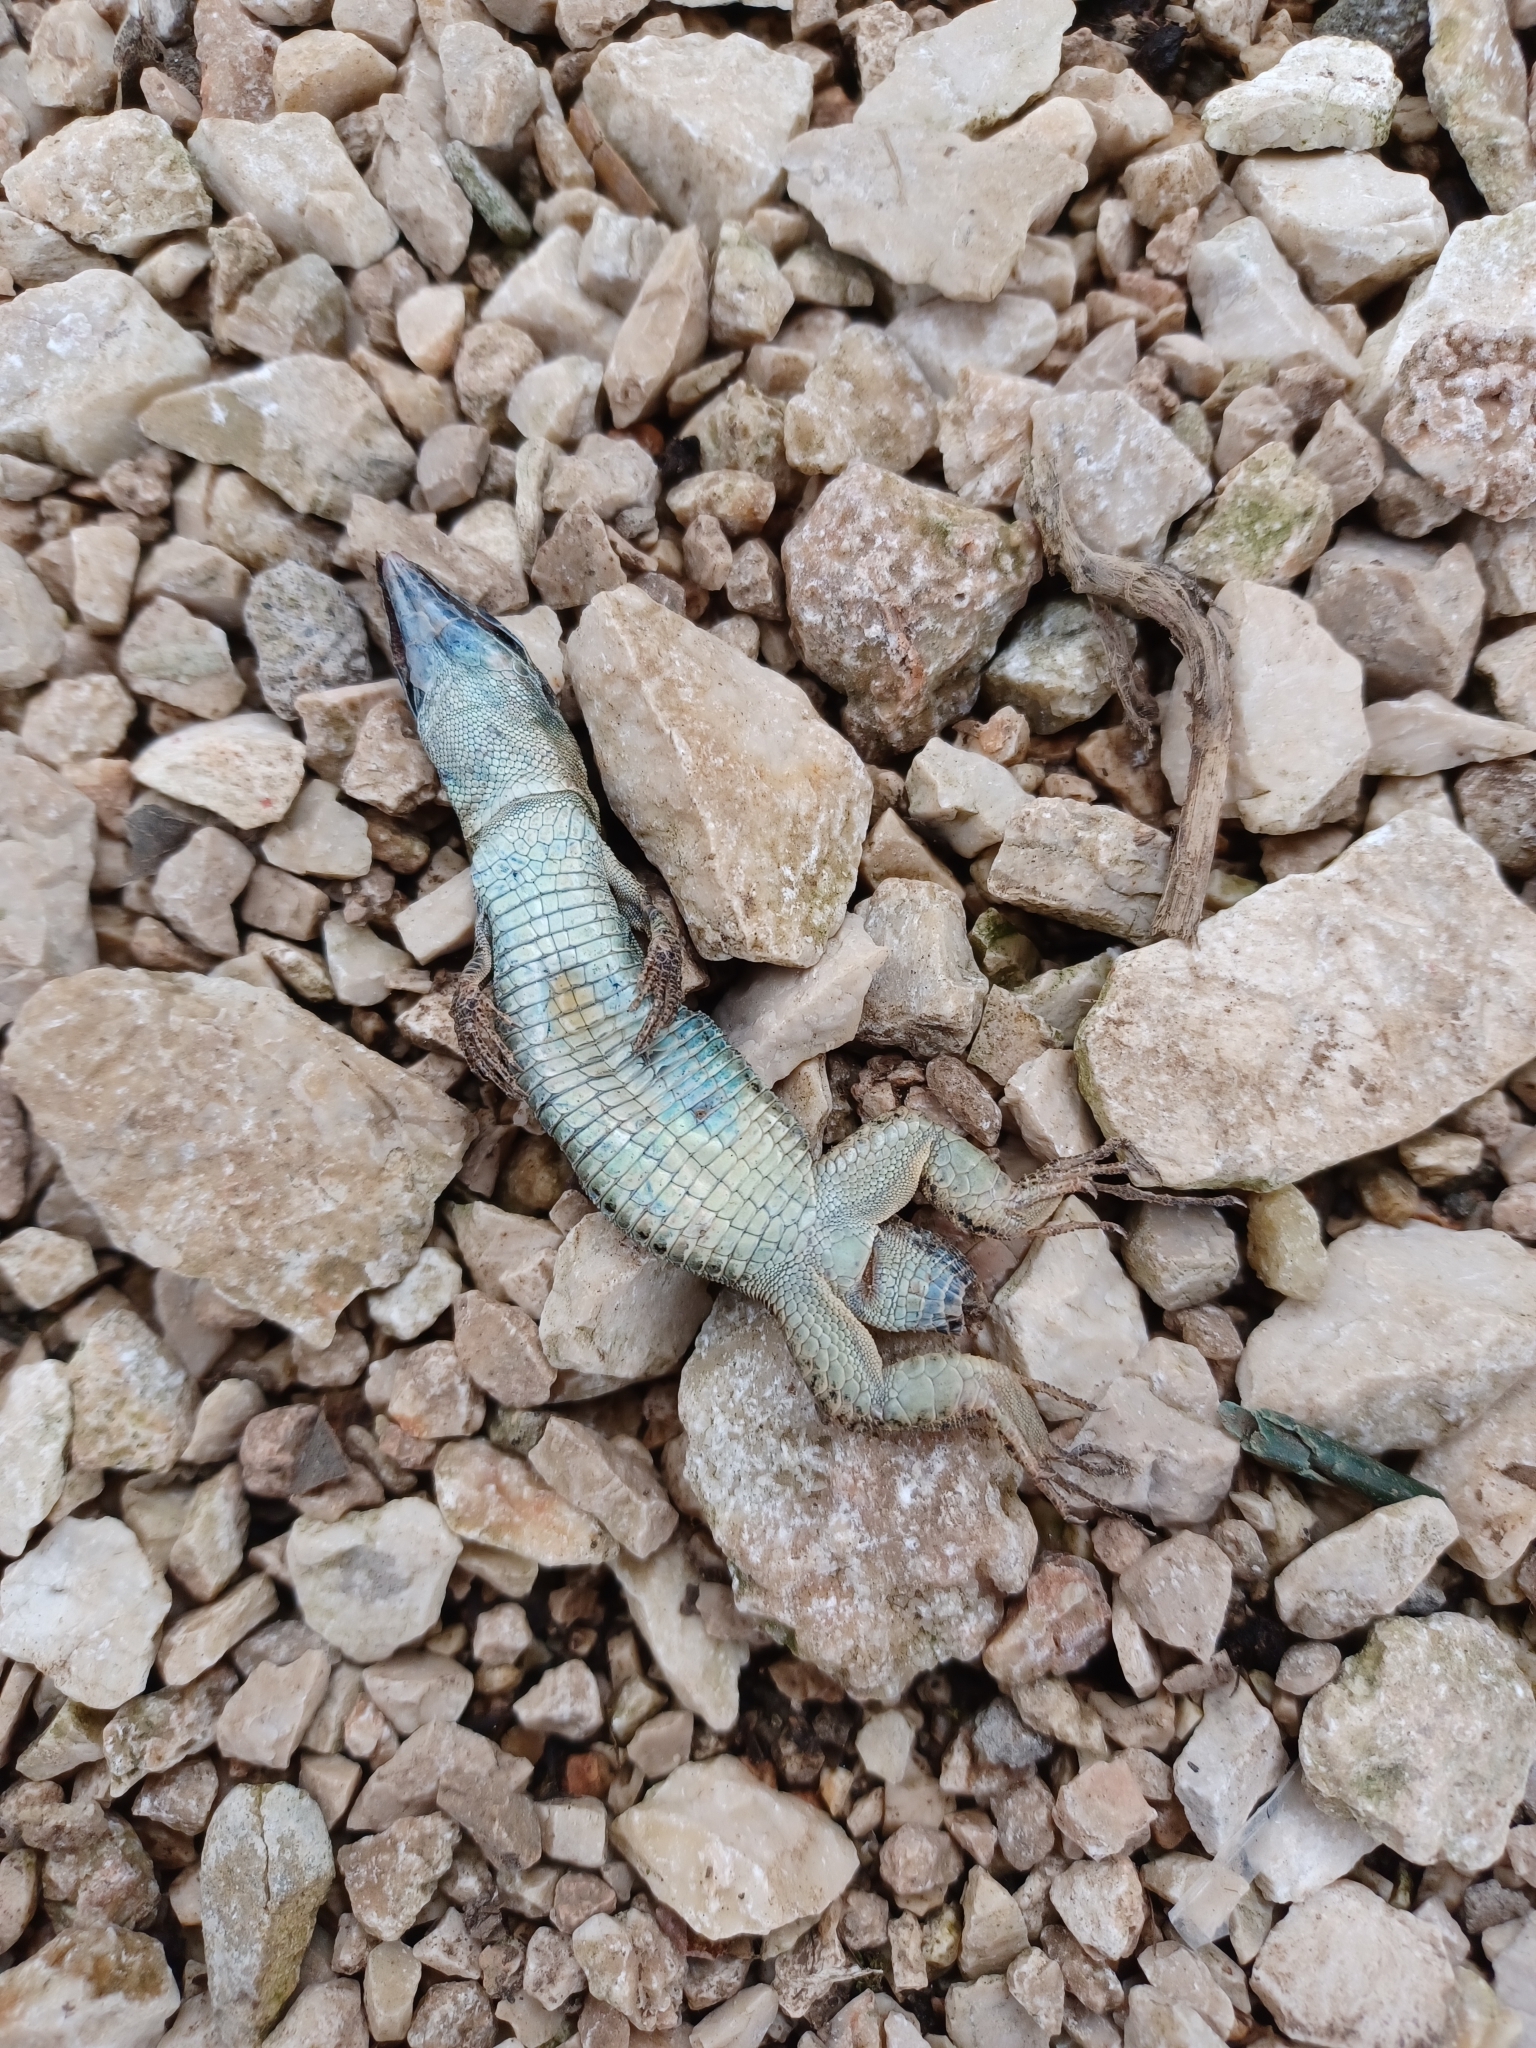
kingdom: Animalia
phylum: Chordata
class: Squamata
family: Lacertidae
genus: Podarcis
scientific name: Podarcis siculus
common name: Italian wall lizard
